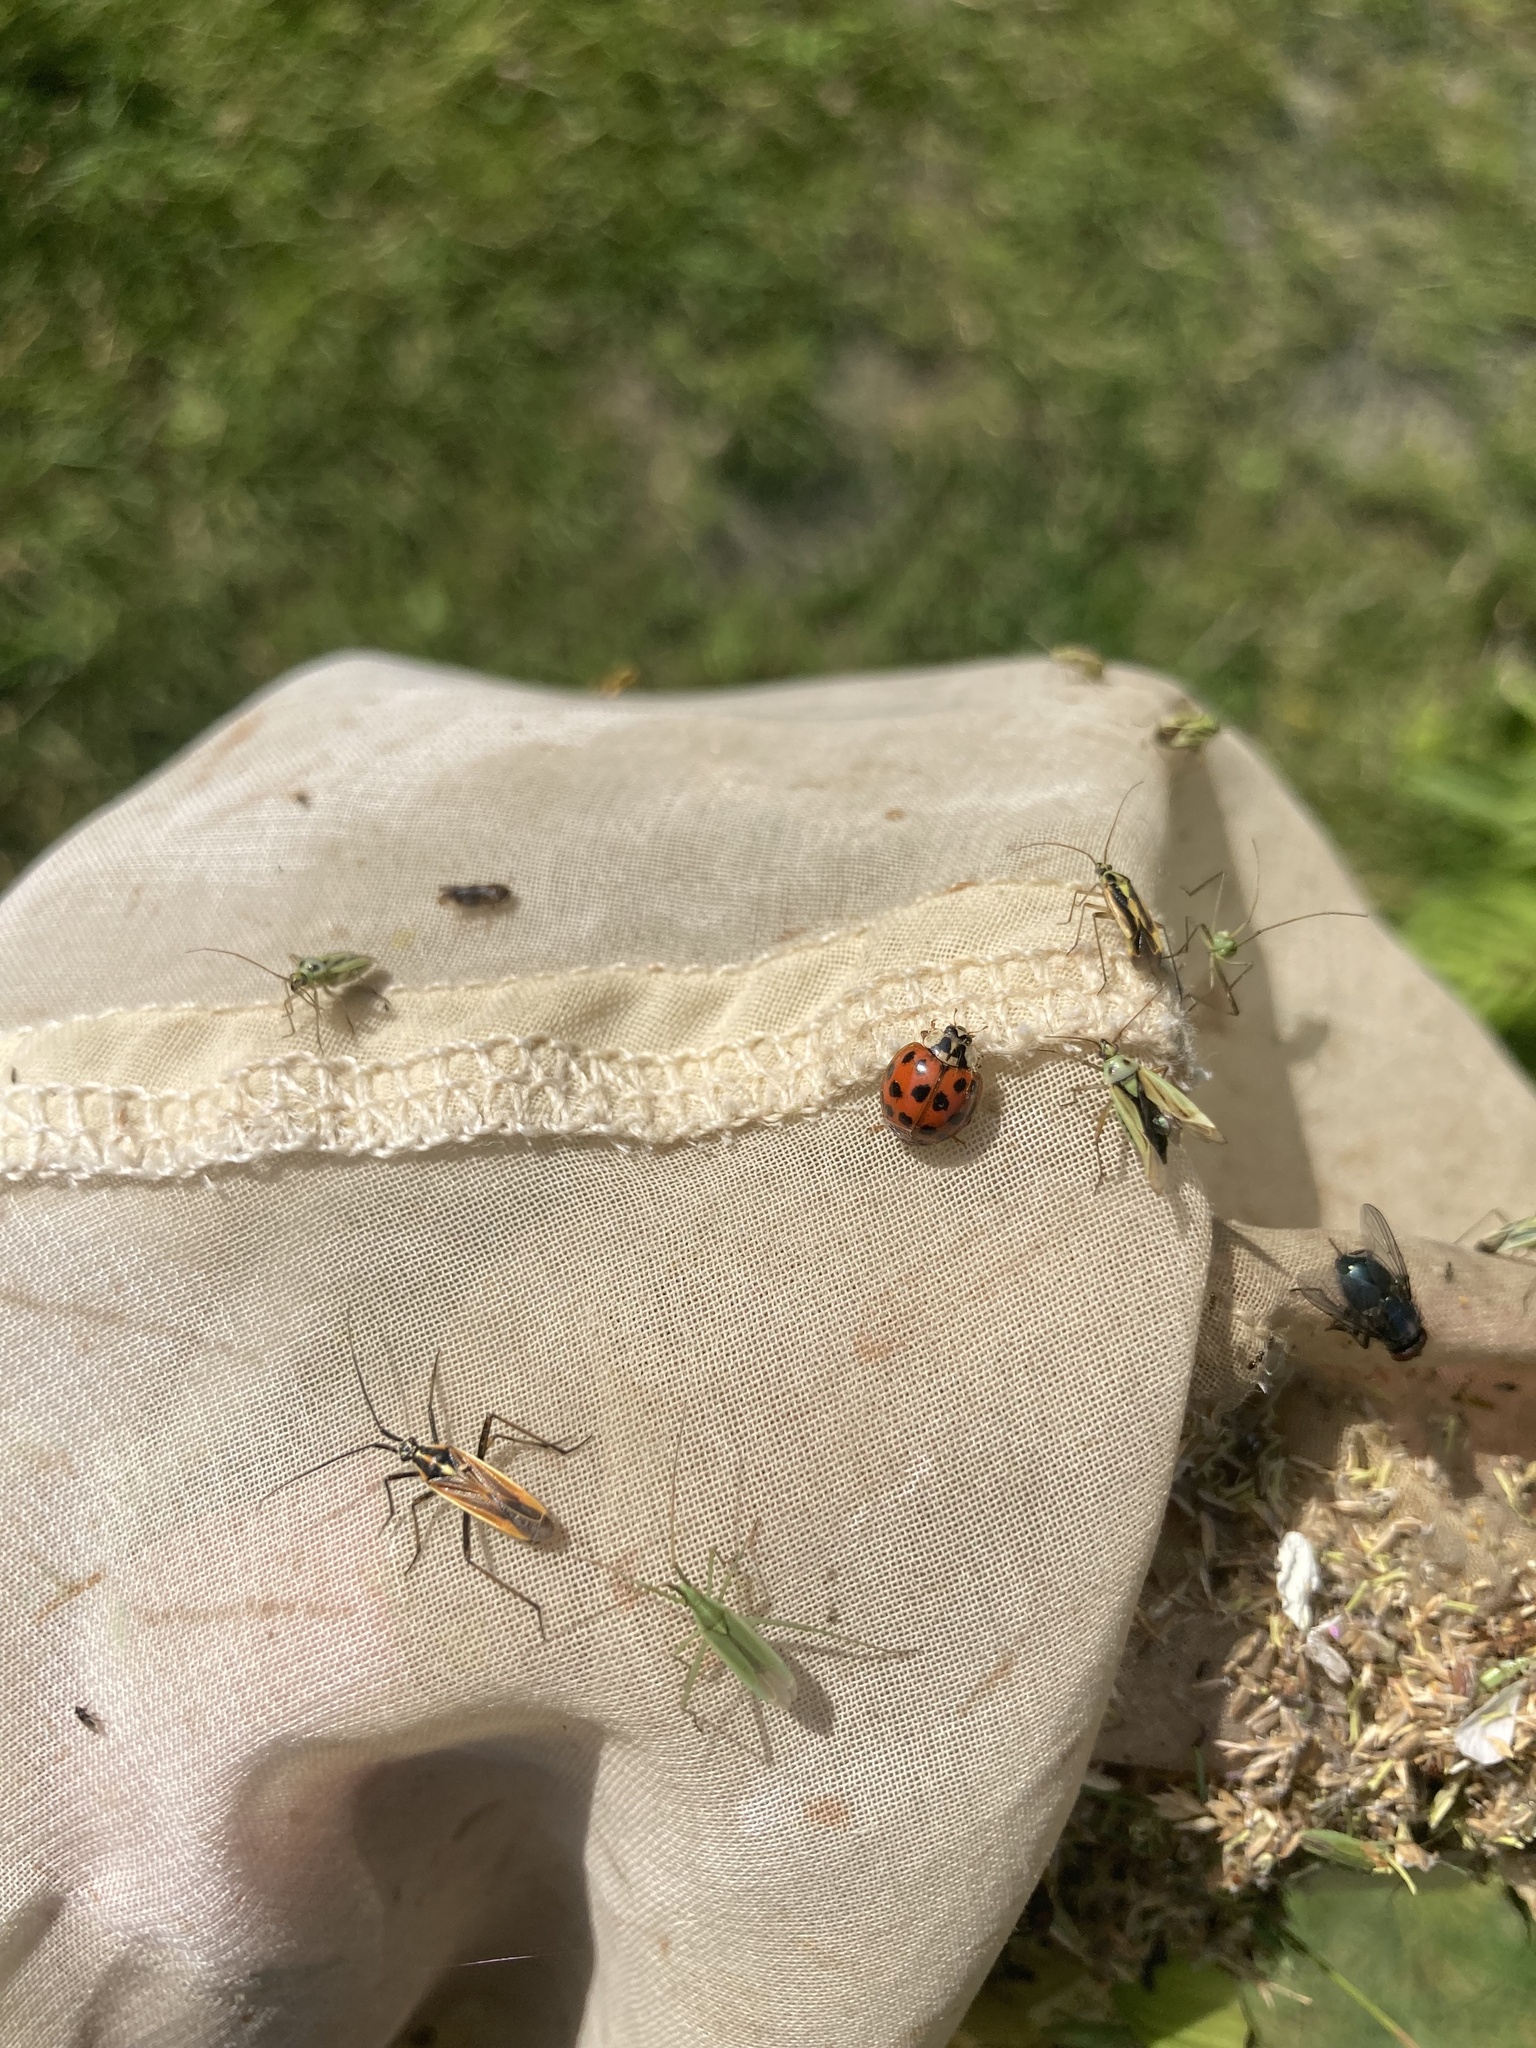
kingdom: Animalia
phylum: Arthropoda
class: Insecta
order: Coleoptera
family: Coccinellidae
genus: Harmonia
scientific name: Harmonia axyridis
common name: Harlequin ladybird
